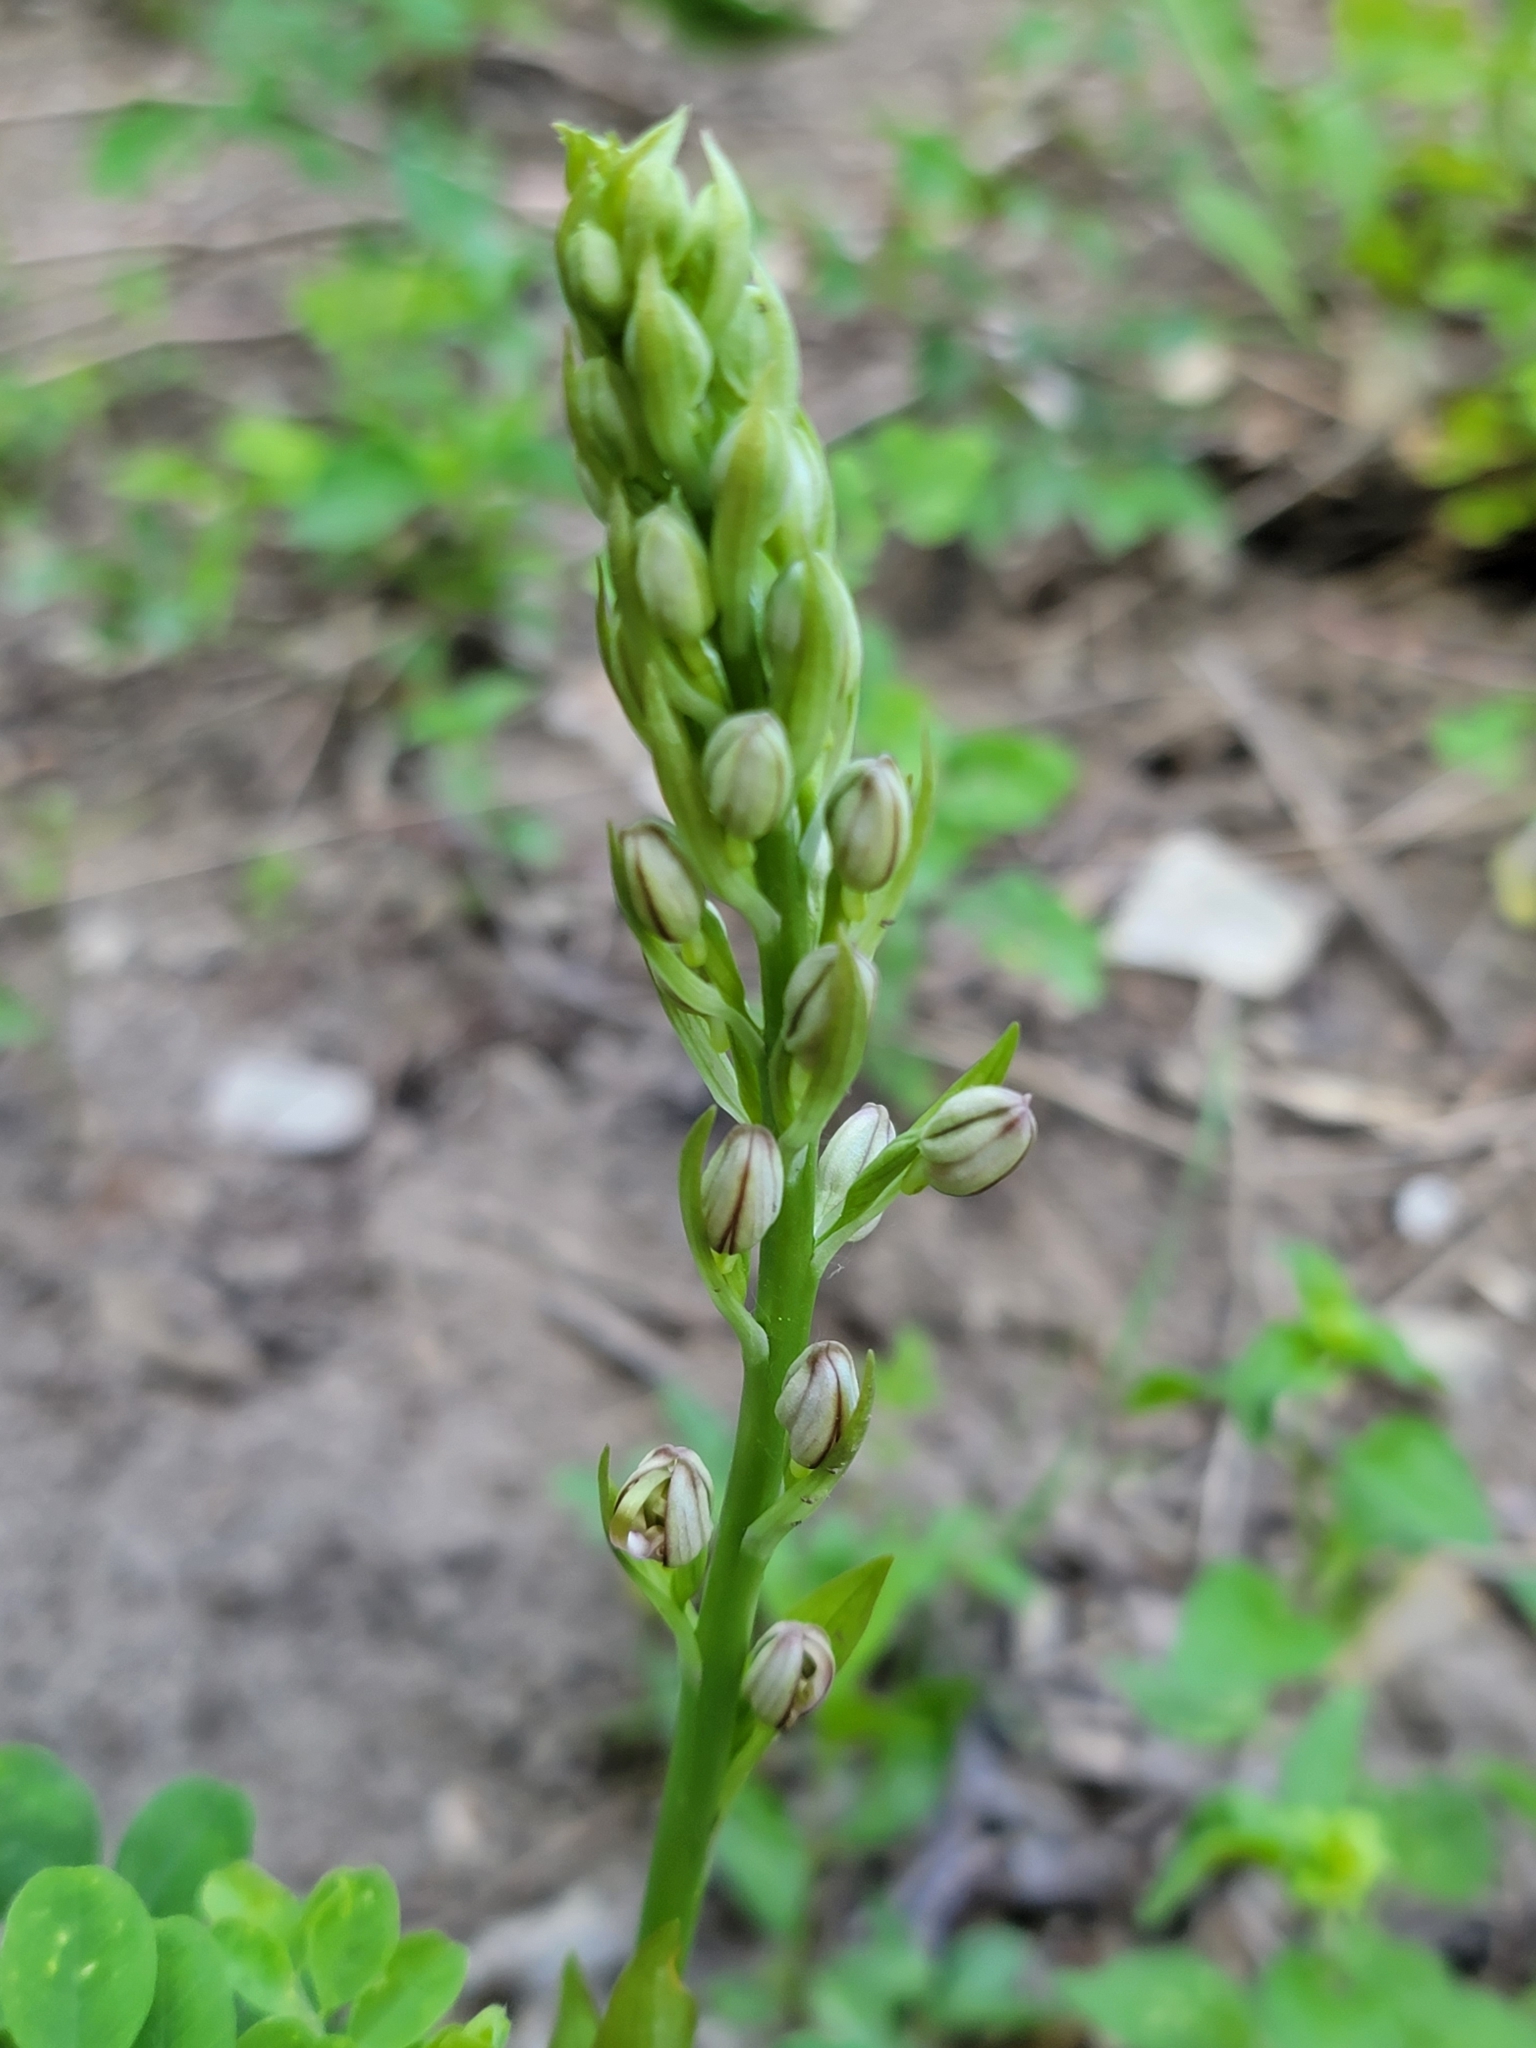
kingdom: Plantae
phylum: Tracheophyta
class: Liliopsida
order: Asparagales
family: Orchidaceae
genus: Himantoglossum
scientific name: Himantoglossum adriaticum
